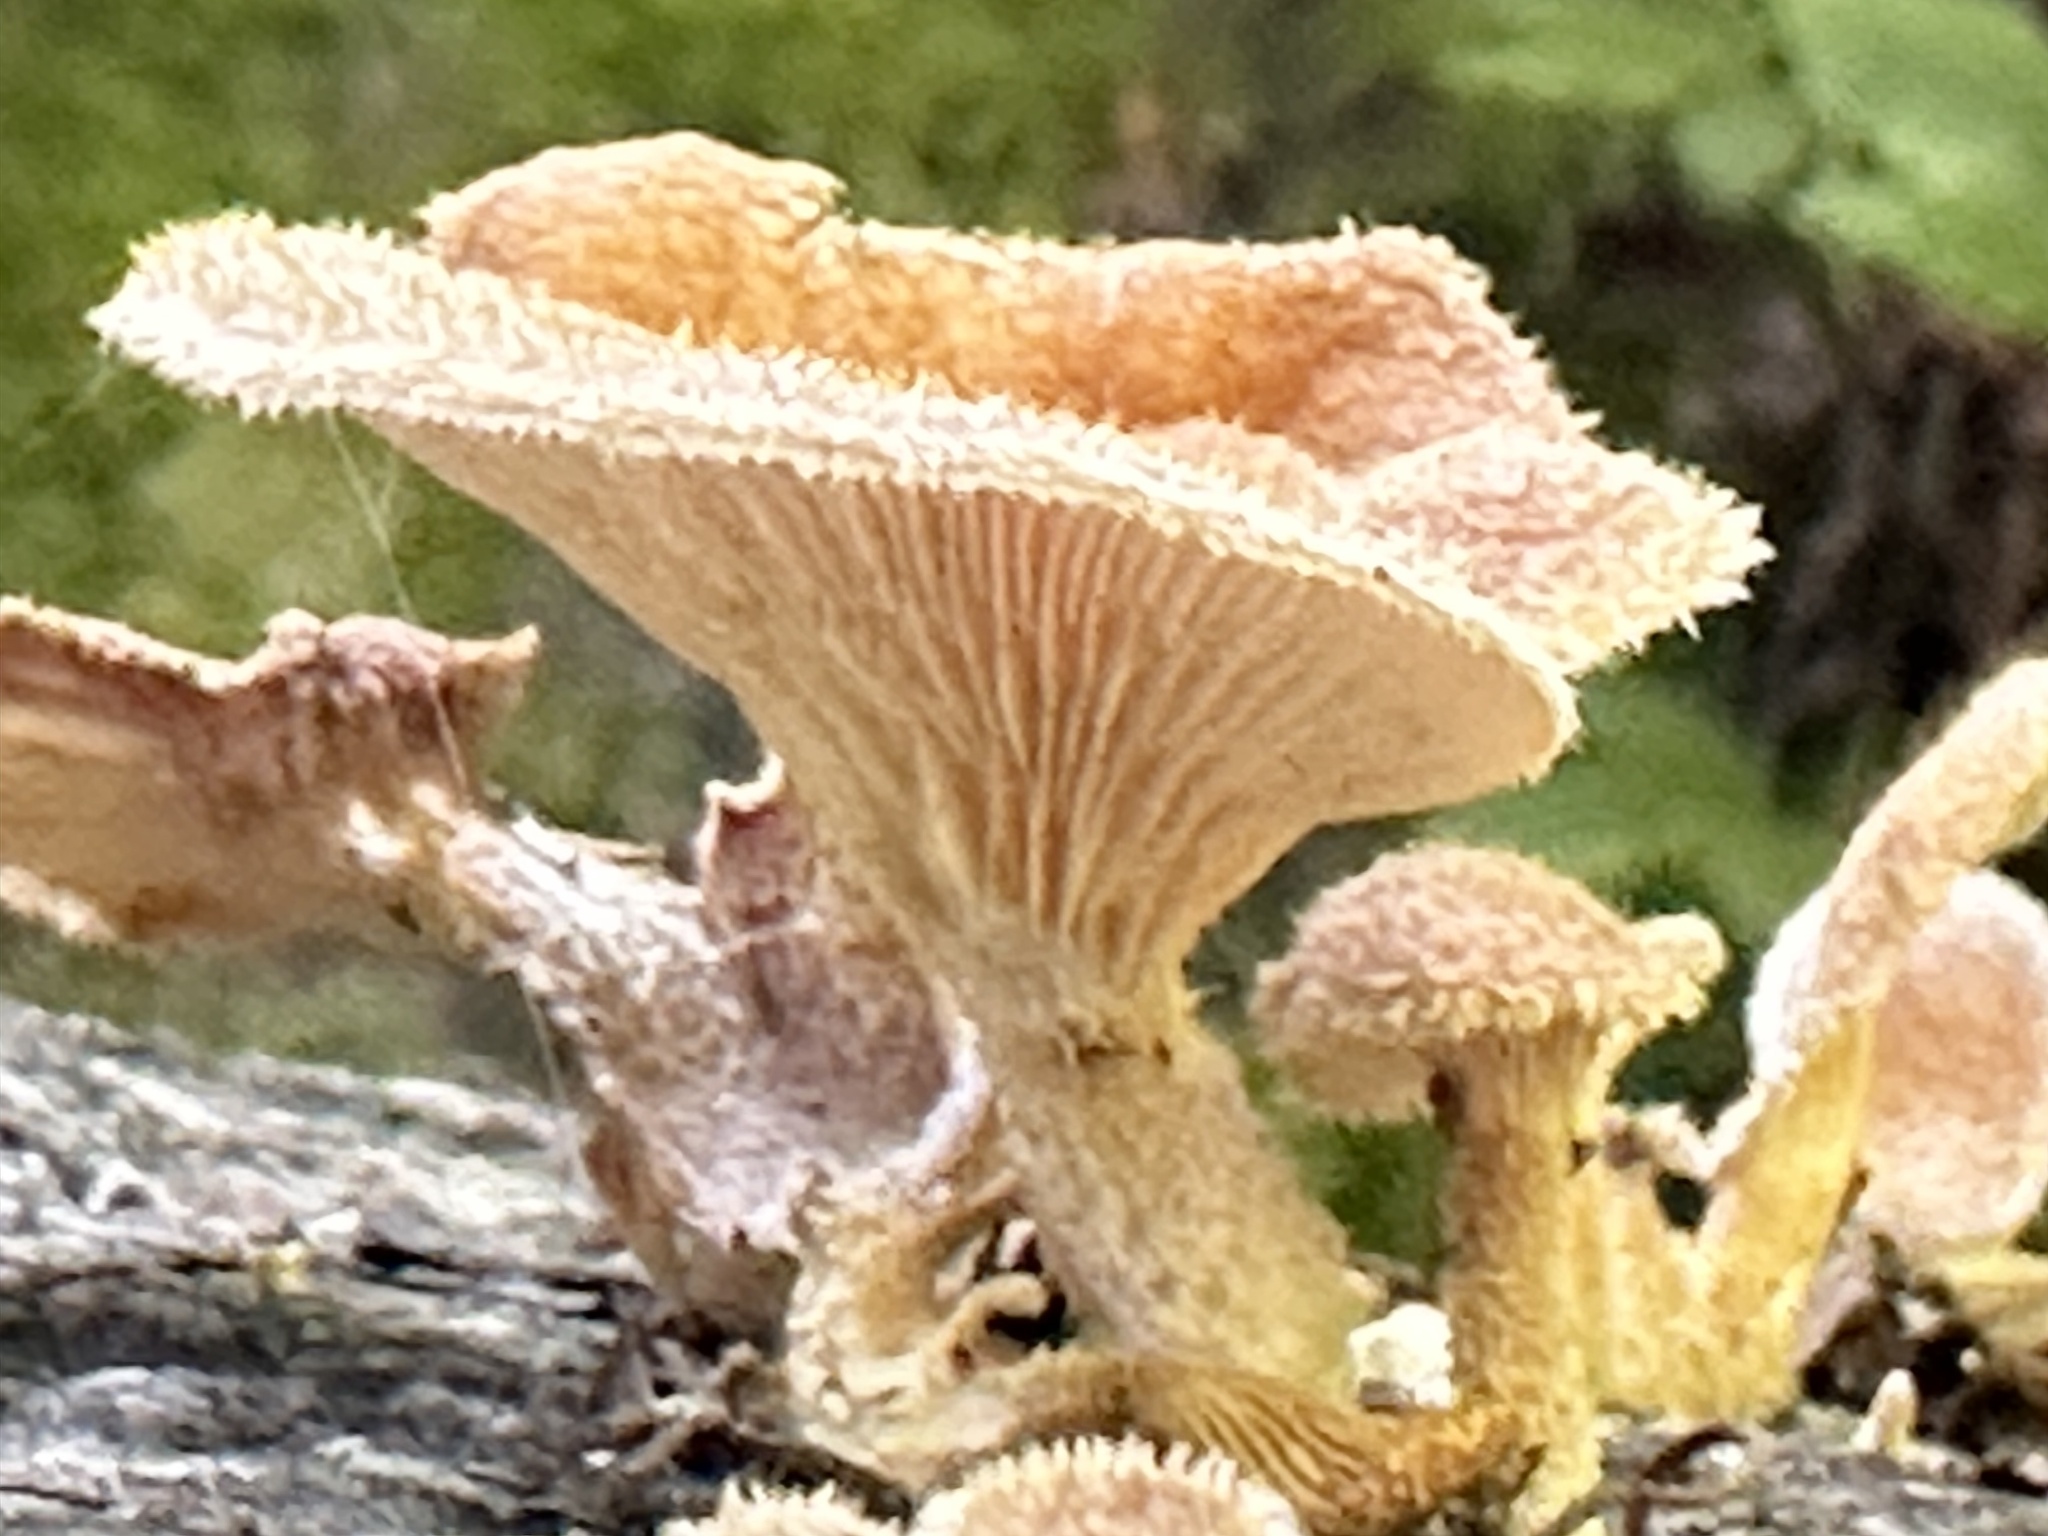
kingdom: Fungi
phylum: Basidiomycota
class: Agaricomycetes
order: Polyporales
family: Panaceae
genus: Panus
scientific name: Panus neostrigosus
